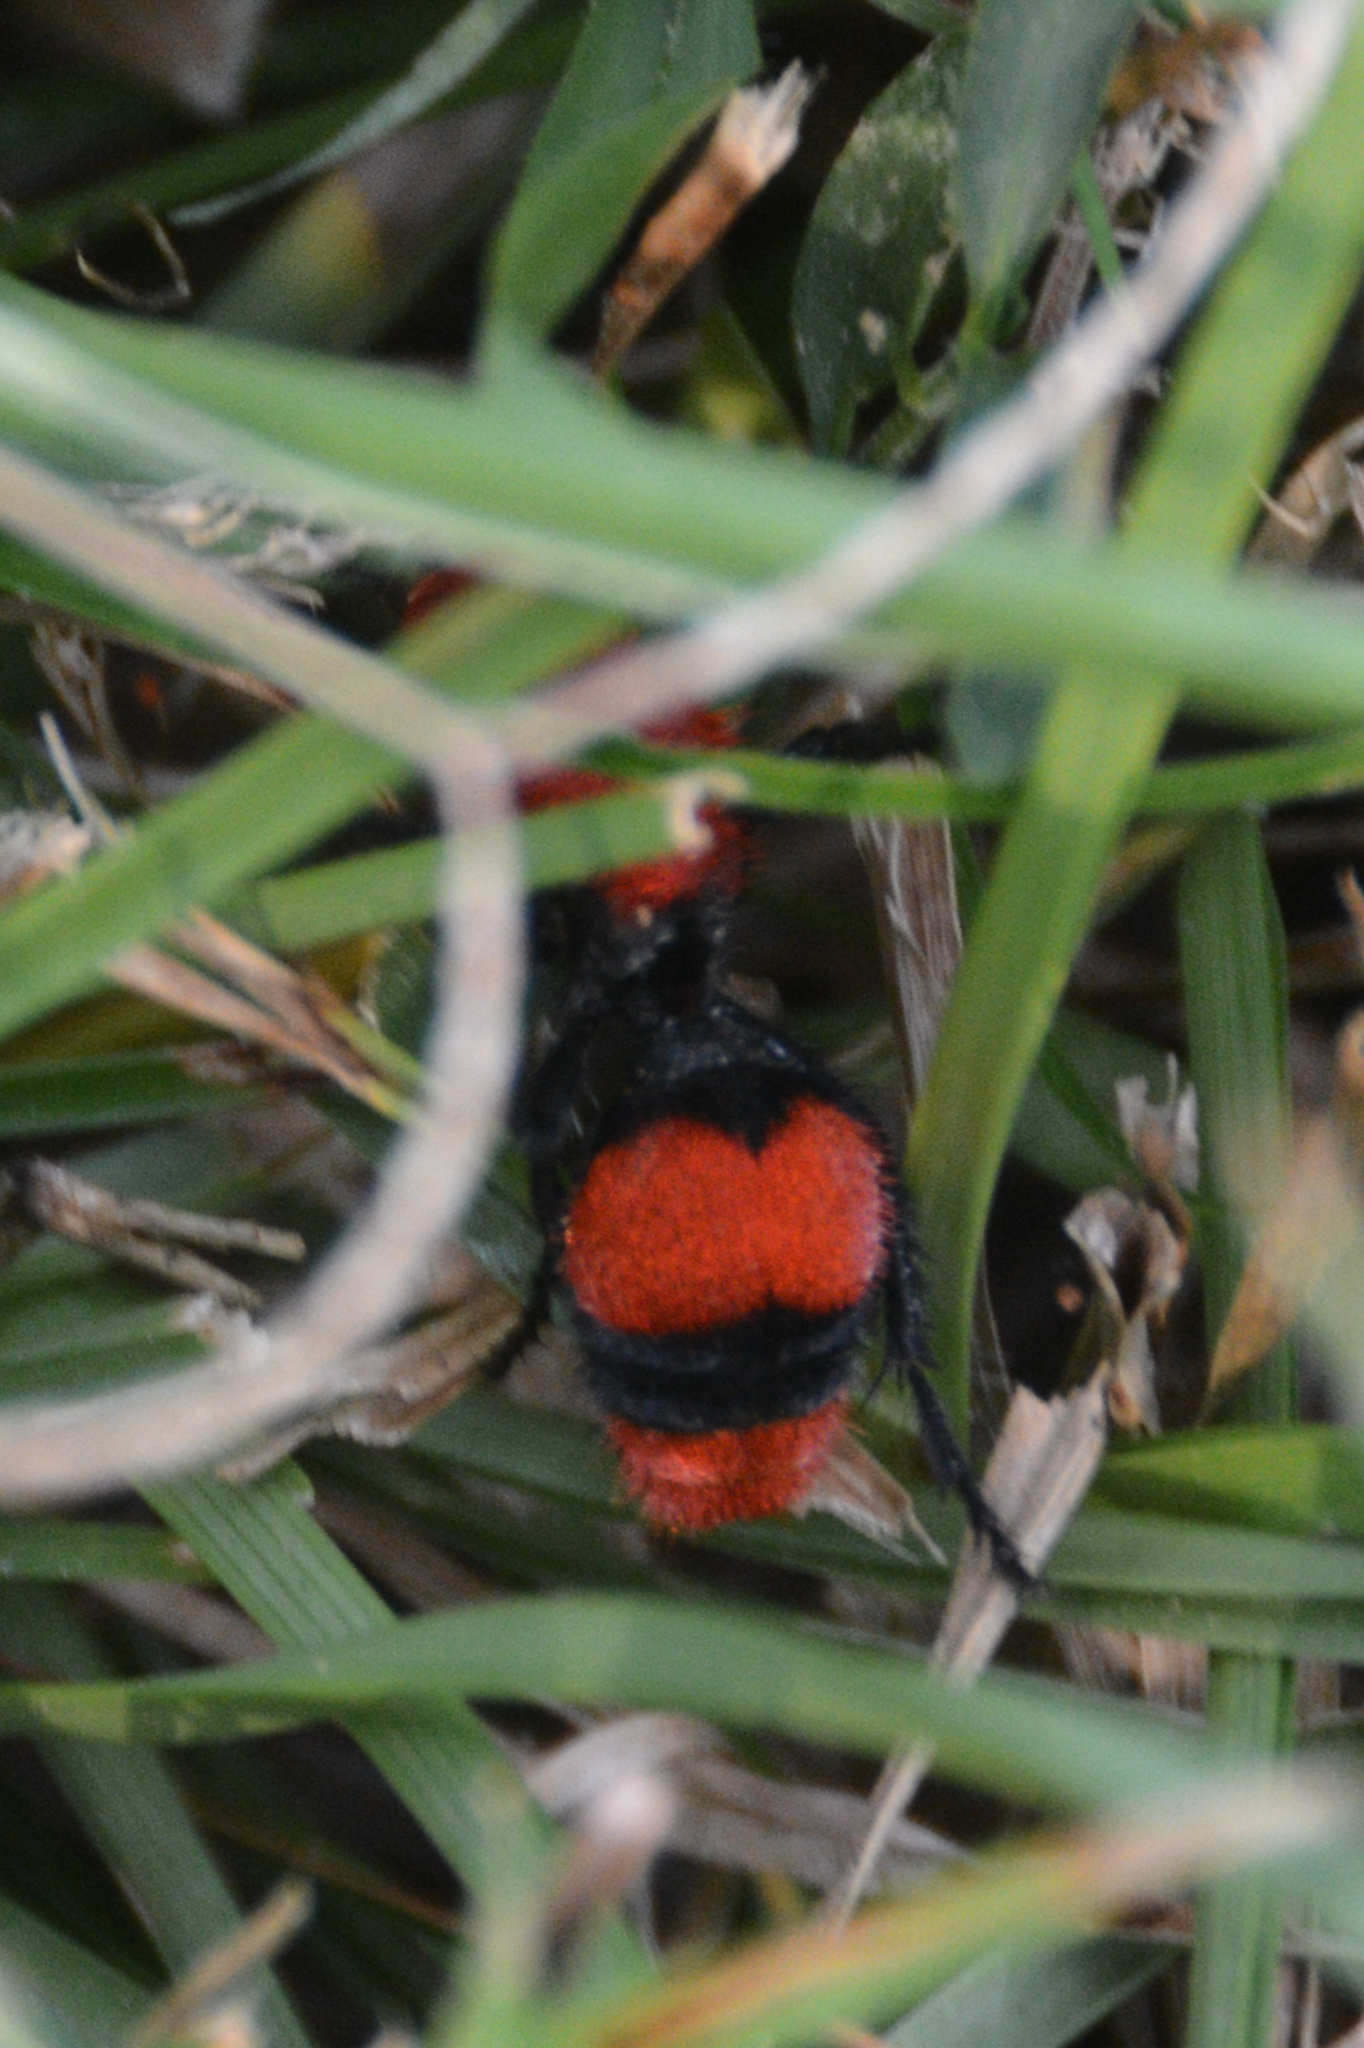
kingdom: Animalia
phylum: Arthropoda
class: Insecta
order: Hymenoptera
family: Mutillidae
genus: Dasymutilla
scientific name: Dasymutilla occidentalis
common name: Common eastern velvet ant
